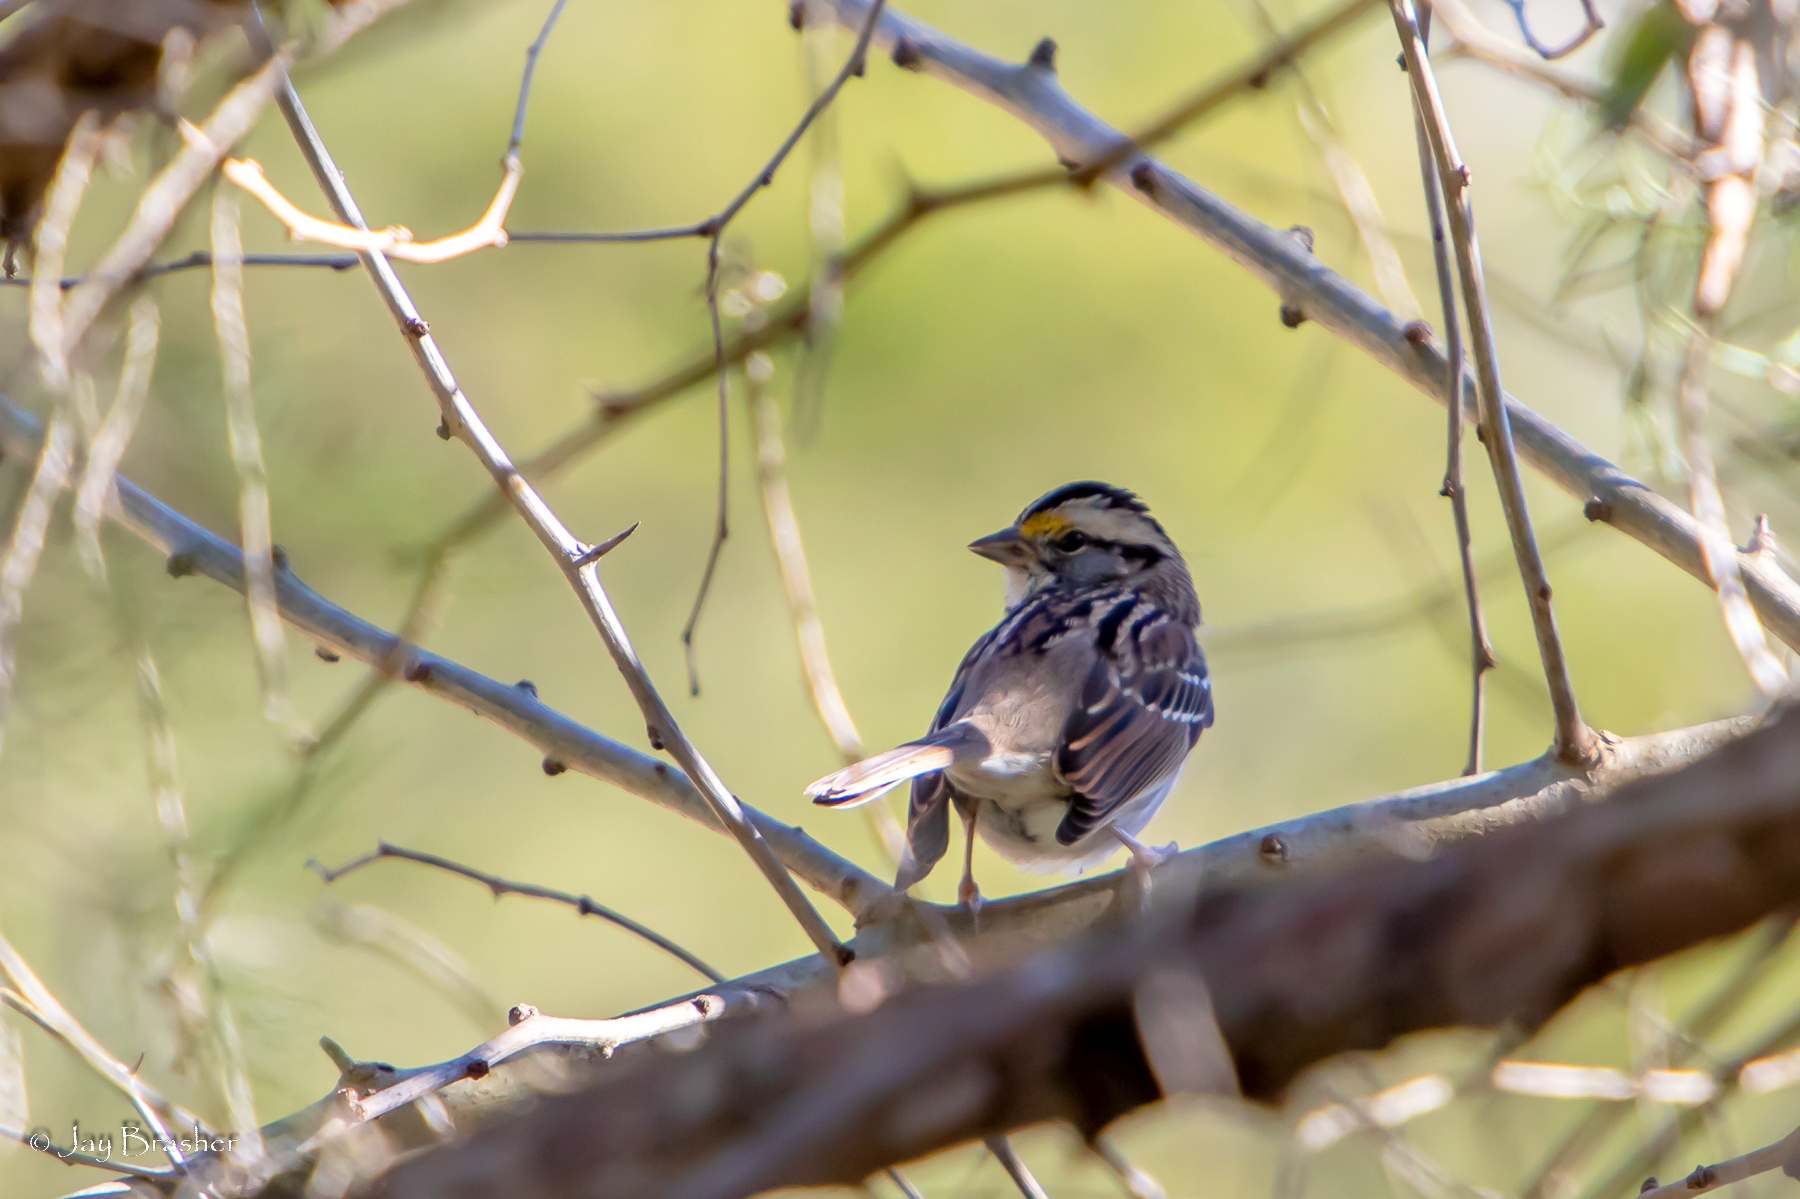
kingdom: Animalia
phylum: Chordata
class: Aves
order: Passeriformes
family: Passerellidae
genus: Zonotrichia
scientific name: Zonotrichia albicollis
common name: White-throated sparrow
